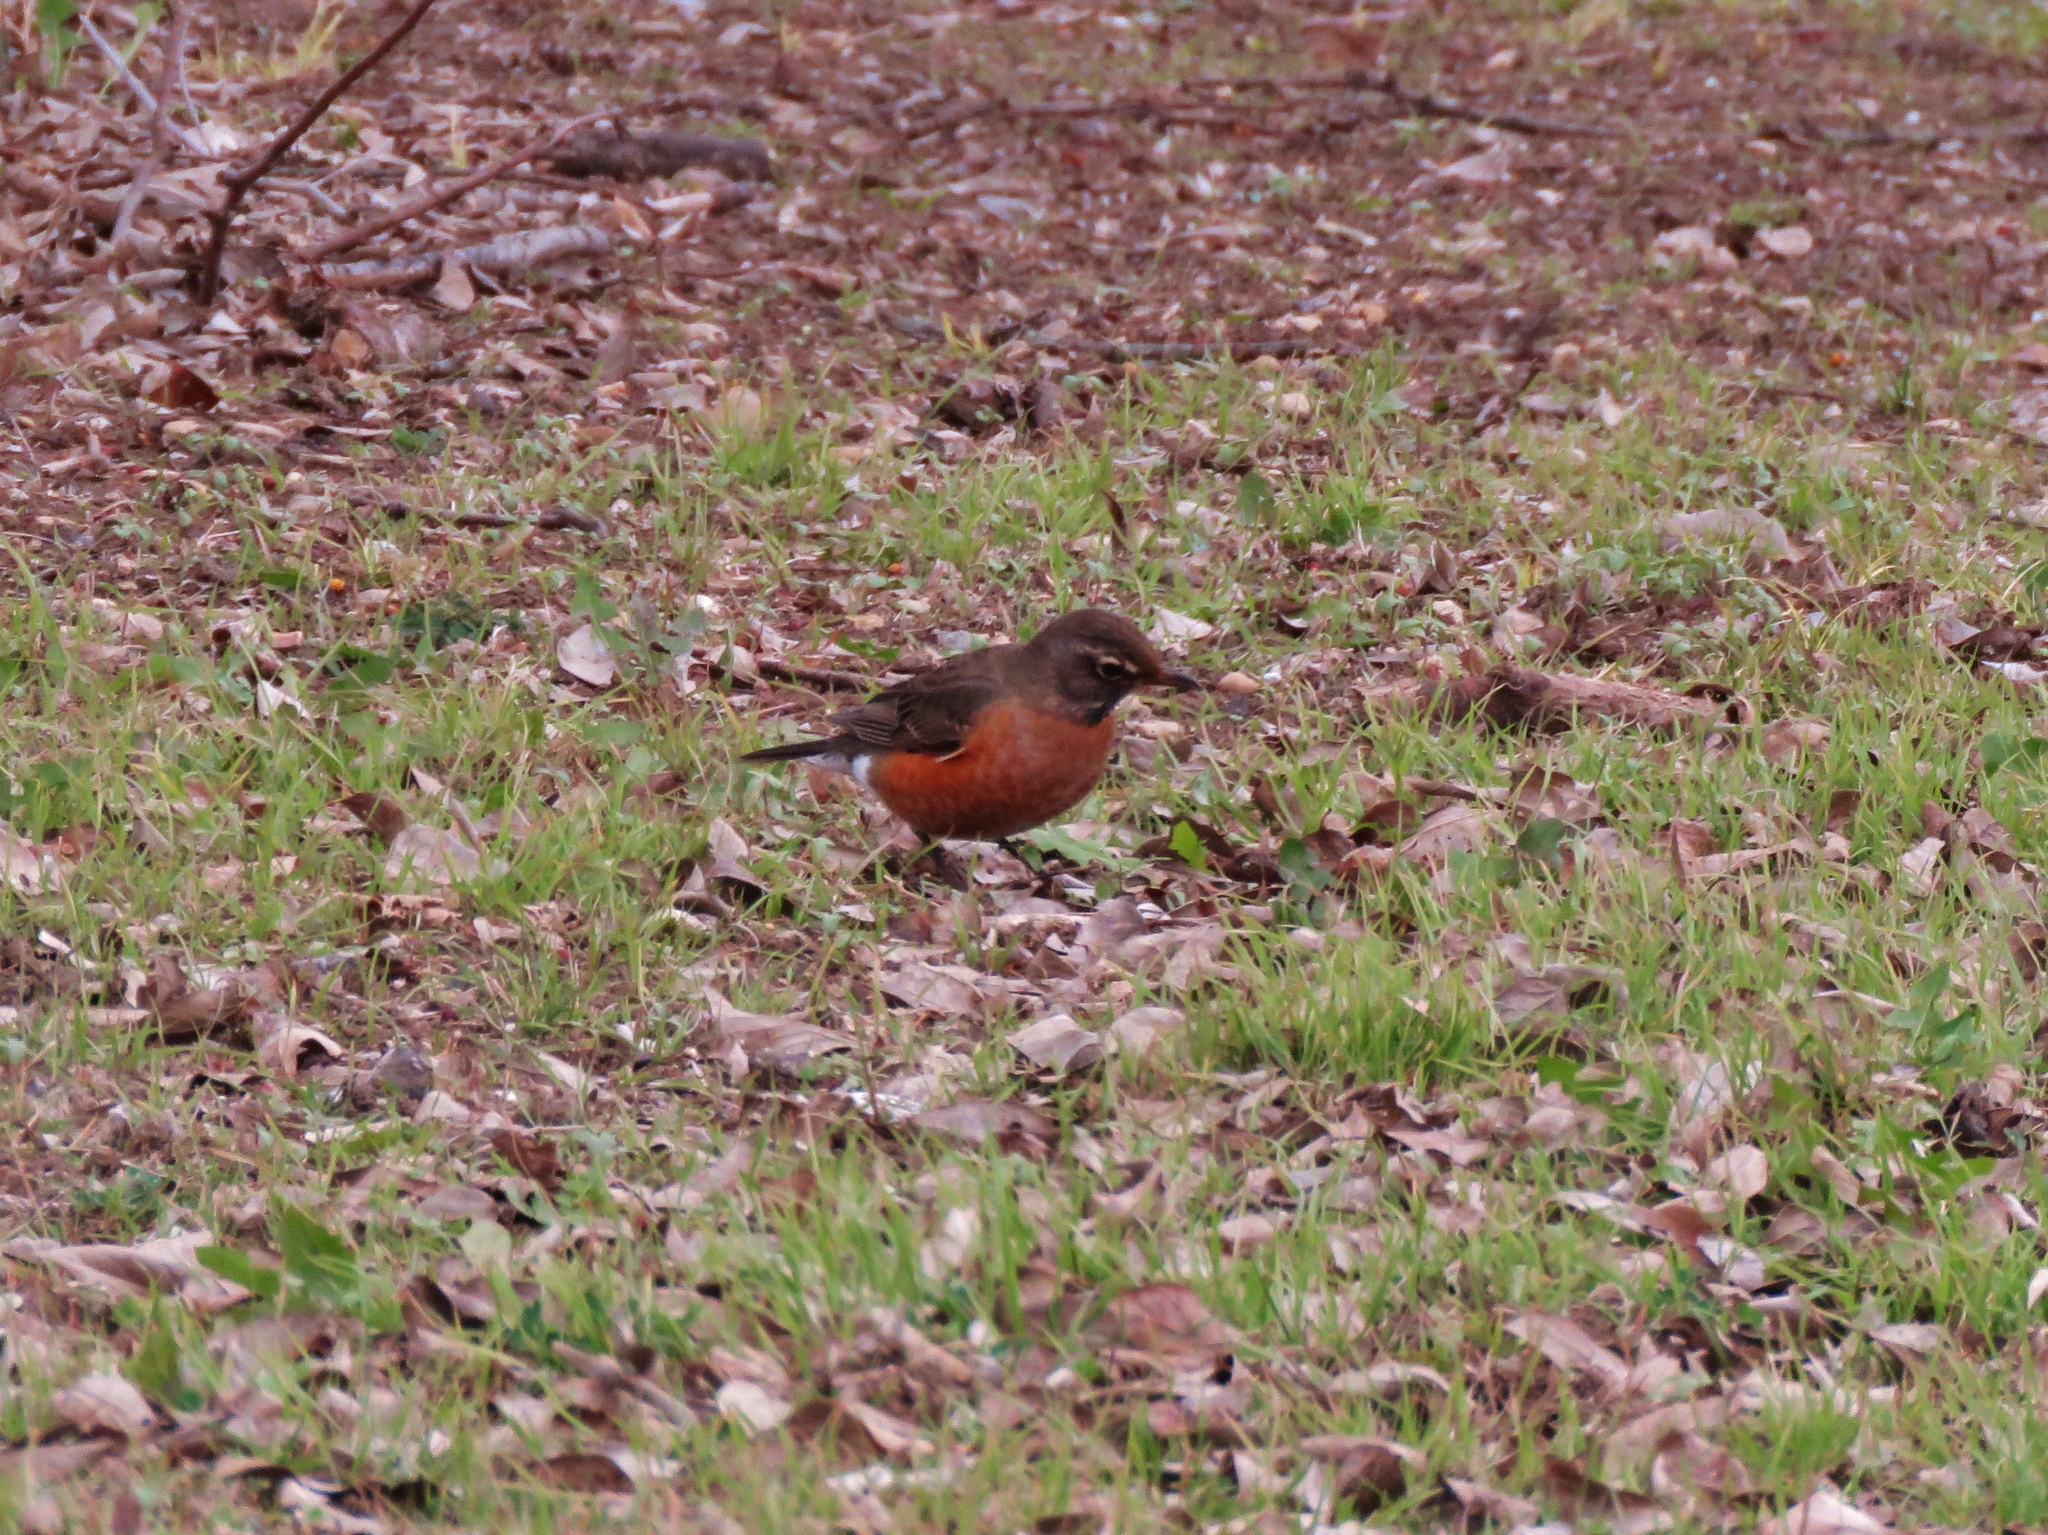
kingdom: Animalia
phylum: Chordata
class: Aves
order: Passeriformes
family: Turdidae
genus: Turdus
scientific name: Turdus migratorius
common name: American robin
